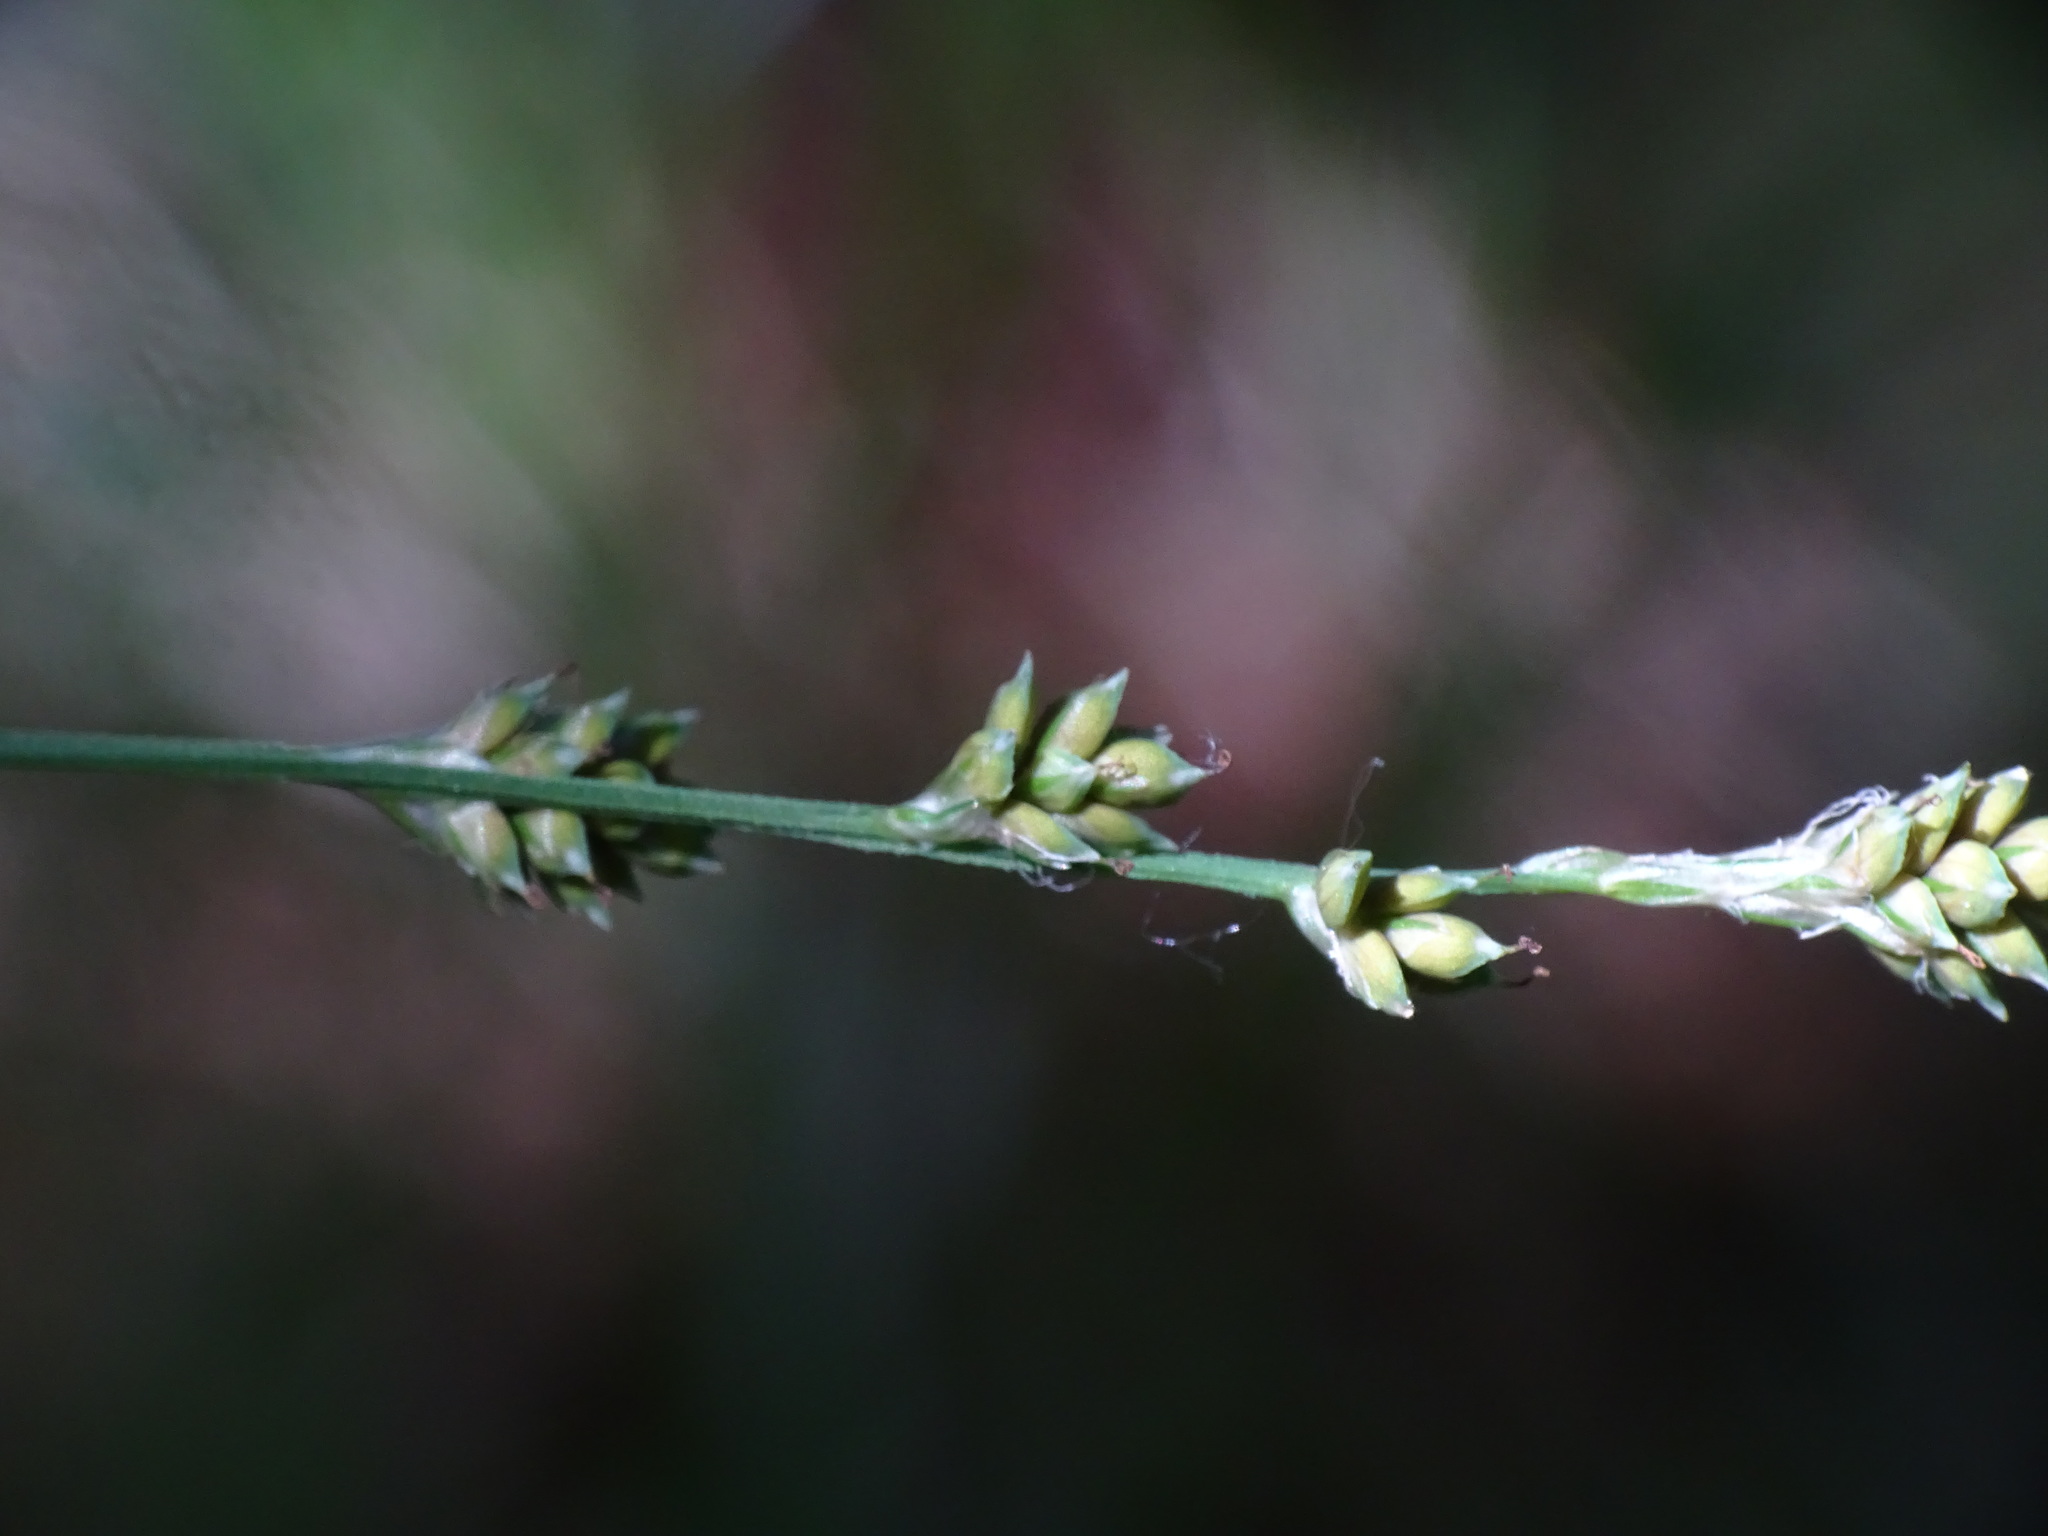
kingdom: Plantae
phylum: Tracheophyta
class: Liliopsida
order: Poales
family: Cyperaceae
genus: Carex
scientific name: Carex canescens
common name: White sedge
